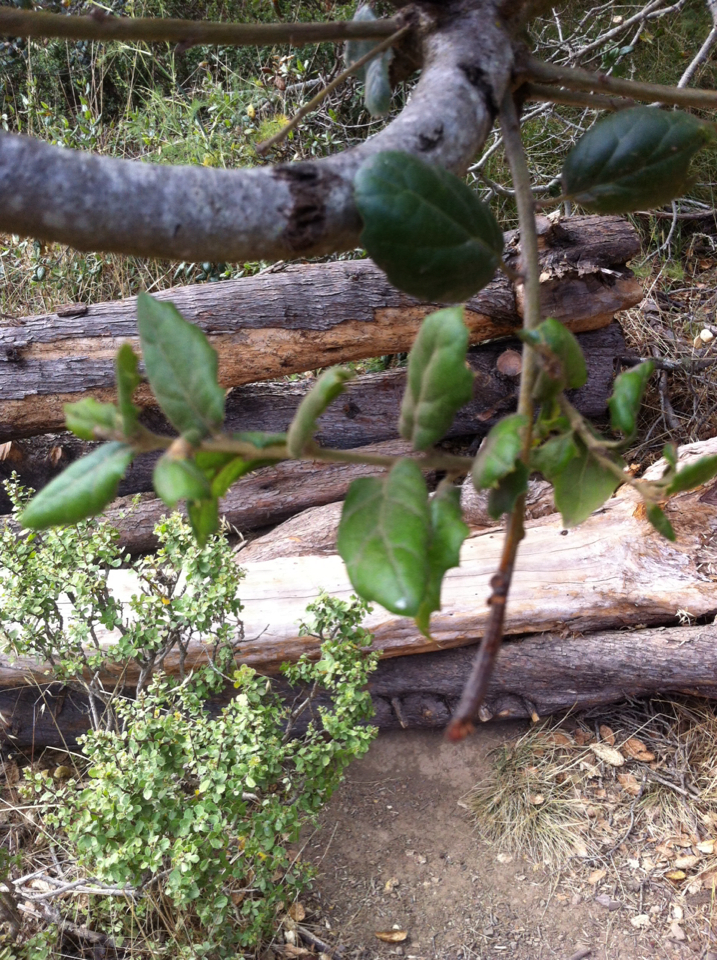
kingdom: Plantae
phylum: Tracheophyta
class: Magnoliopsida
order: Fagales
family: Fagaceae
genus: Quercus
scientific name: Quercus agrifolia
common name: California live oak
